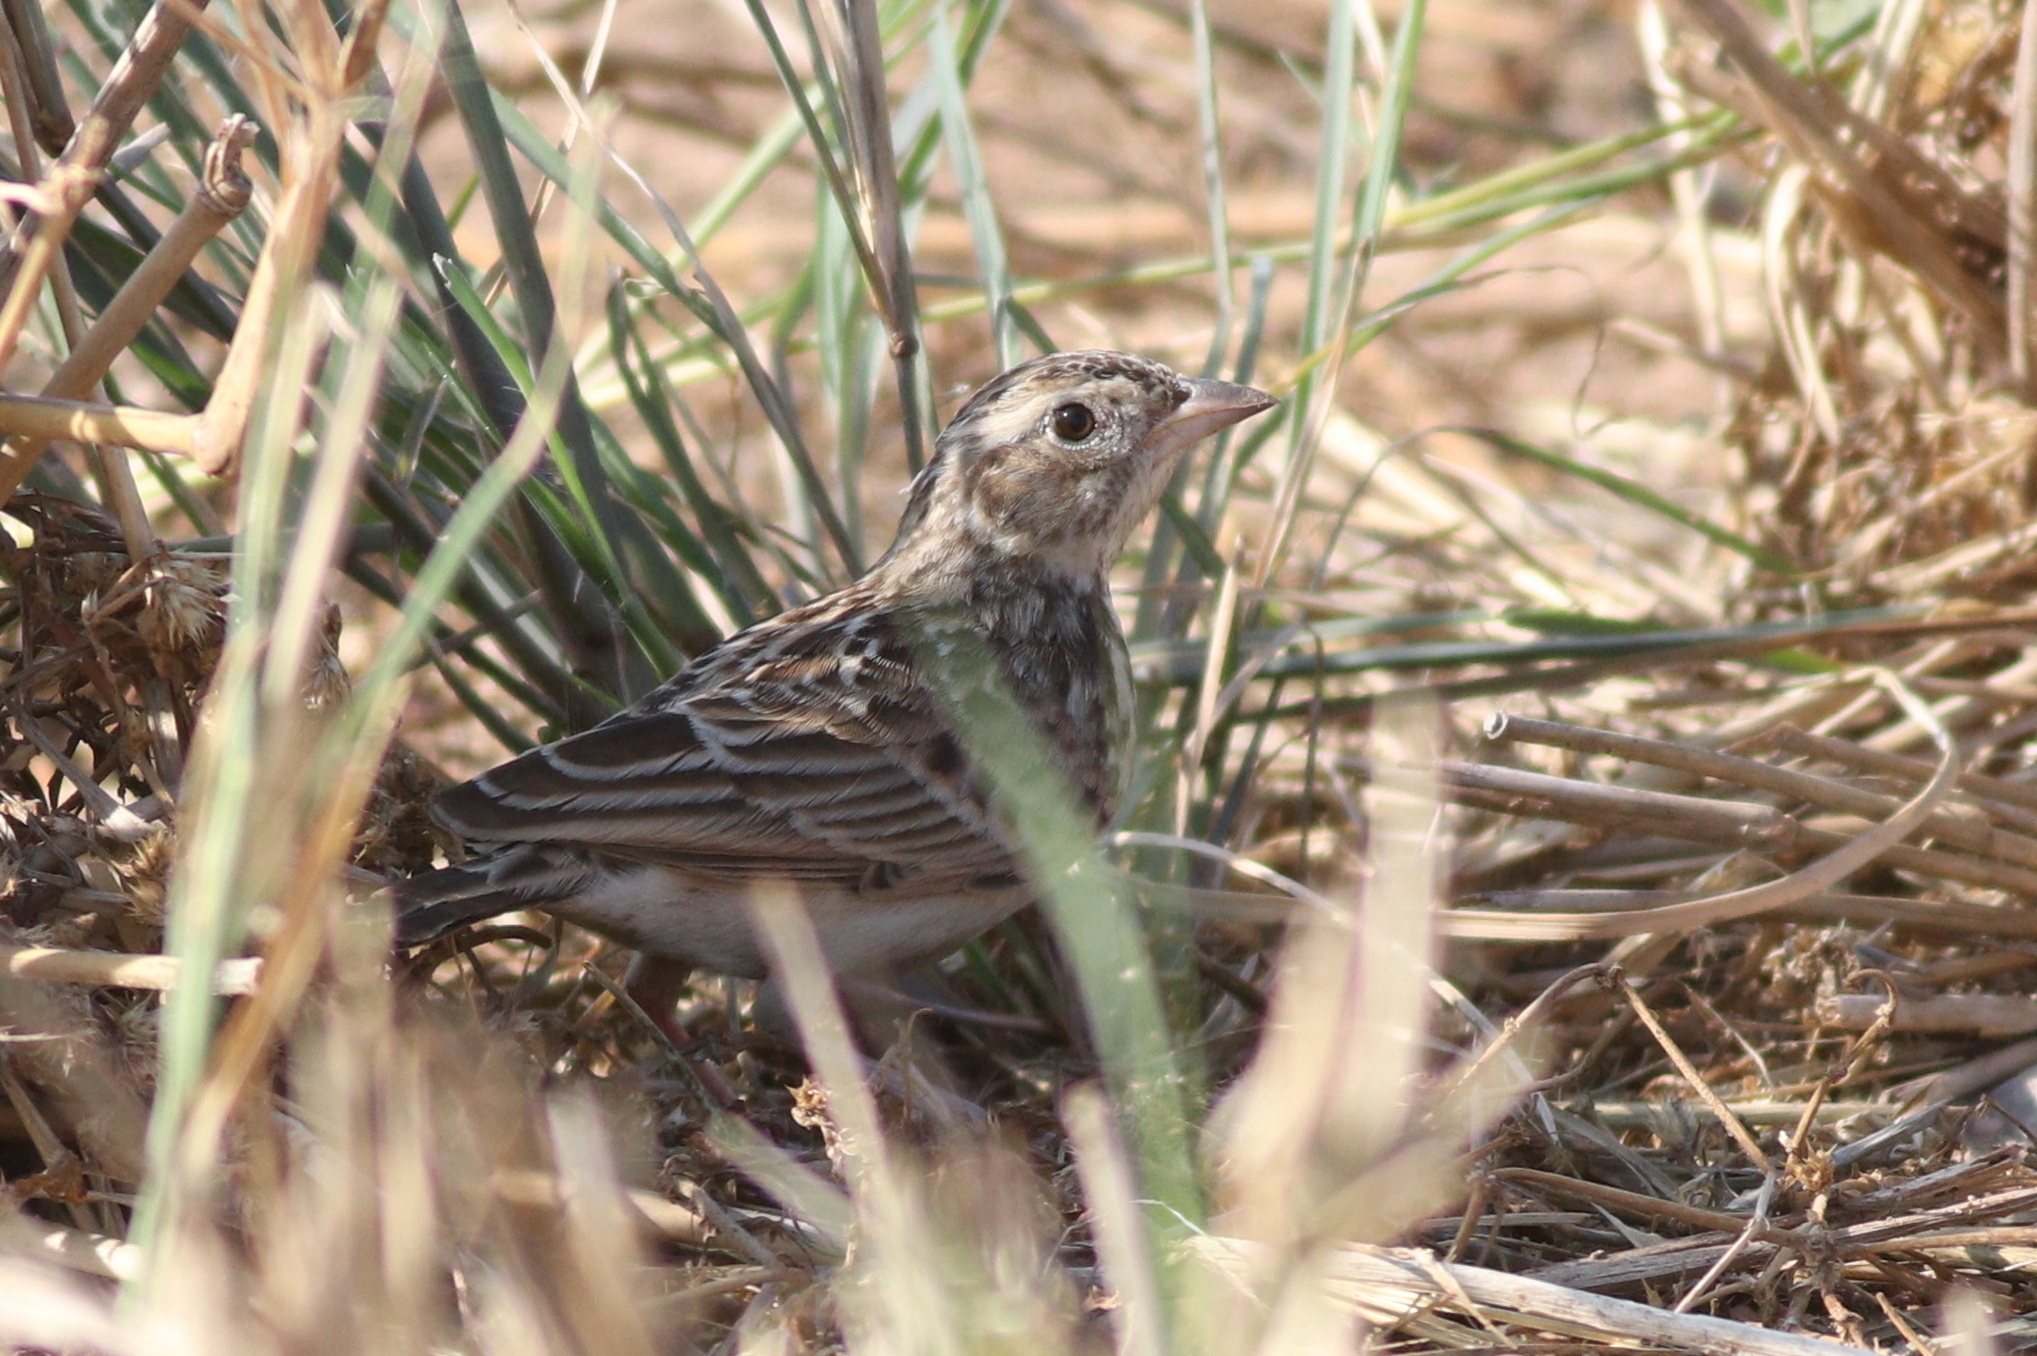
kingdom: Animalia
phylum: Chordata
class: Aves
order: Passeriformes
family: Alaudidae
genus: Mirafra
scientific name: Mirafra javanica
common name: Horsfield's bush lark
